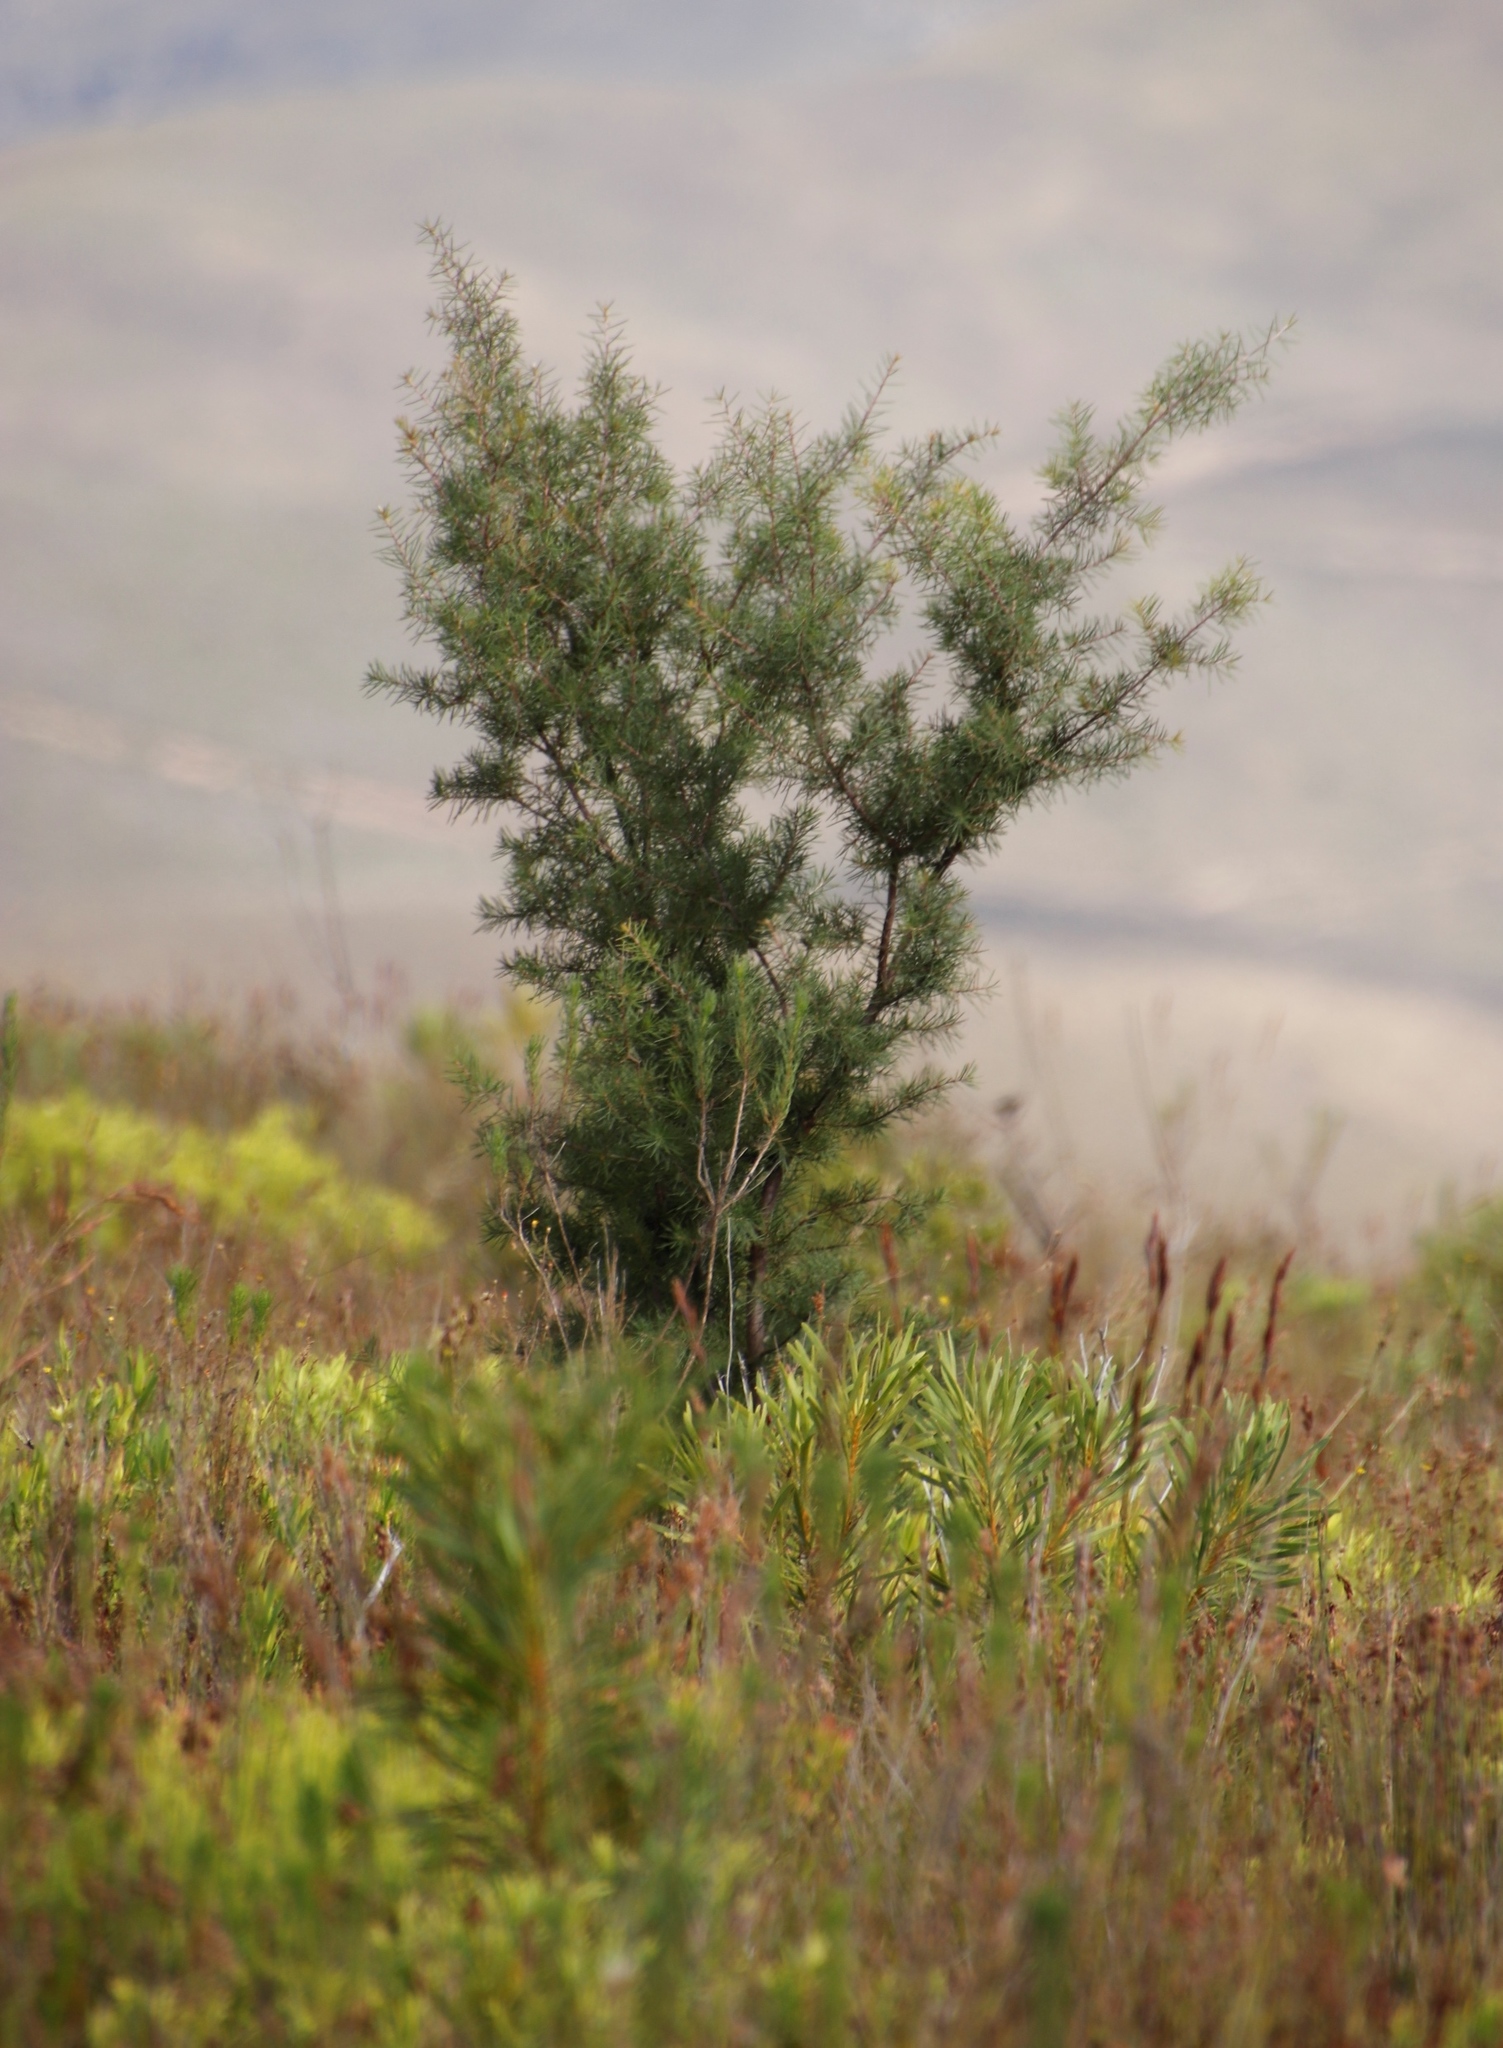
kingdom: Plantae
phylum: Tracheophyta
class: Magnoliopsida
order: Proteales
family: Proteaceae
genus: Hakea
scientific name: Hakea sericea
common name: Needle bush
